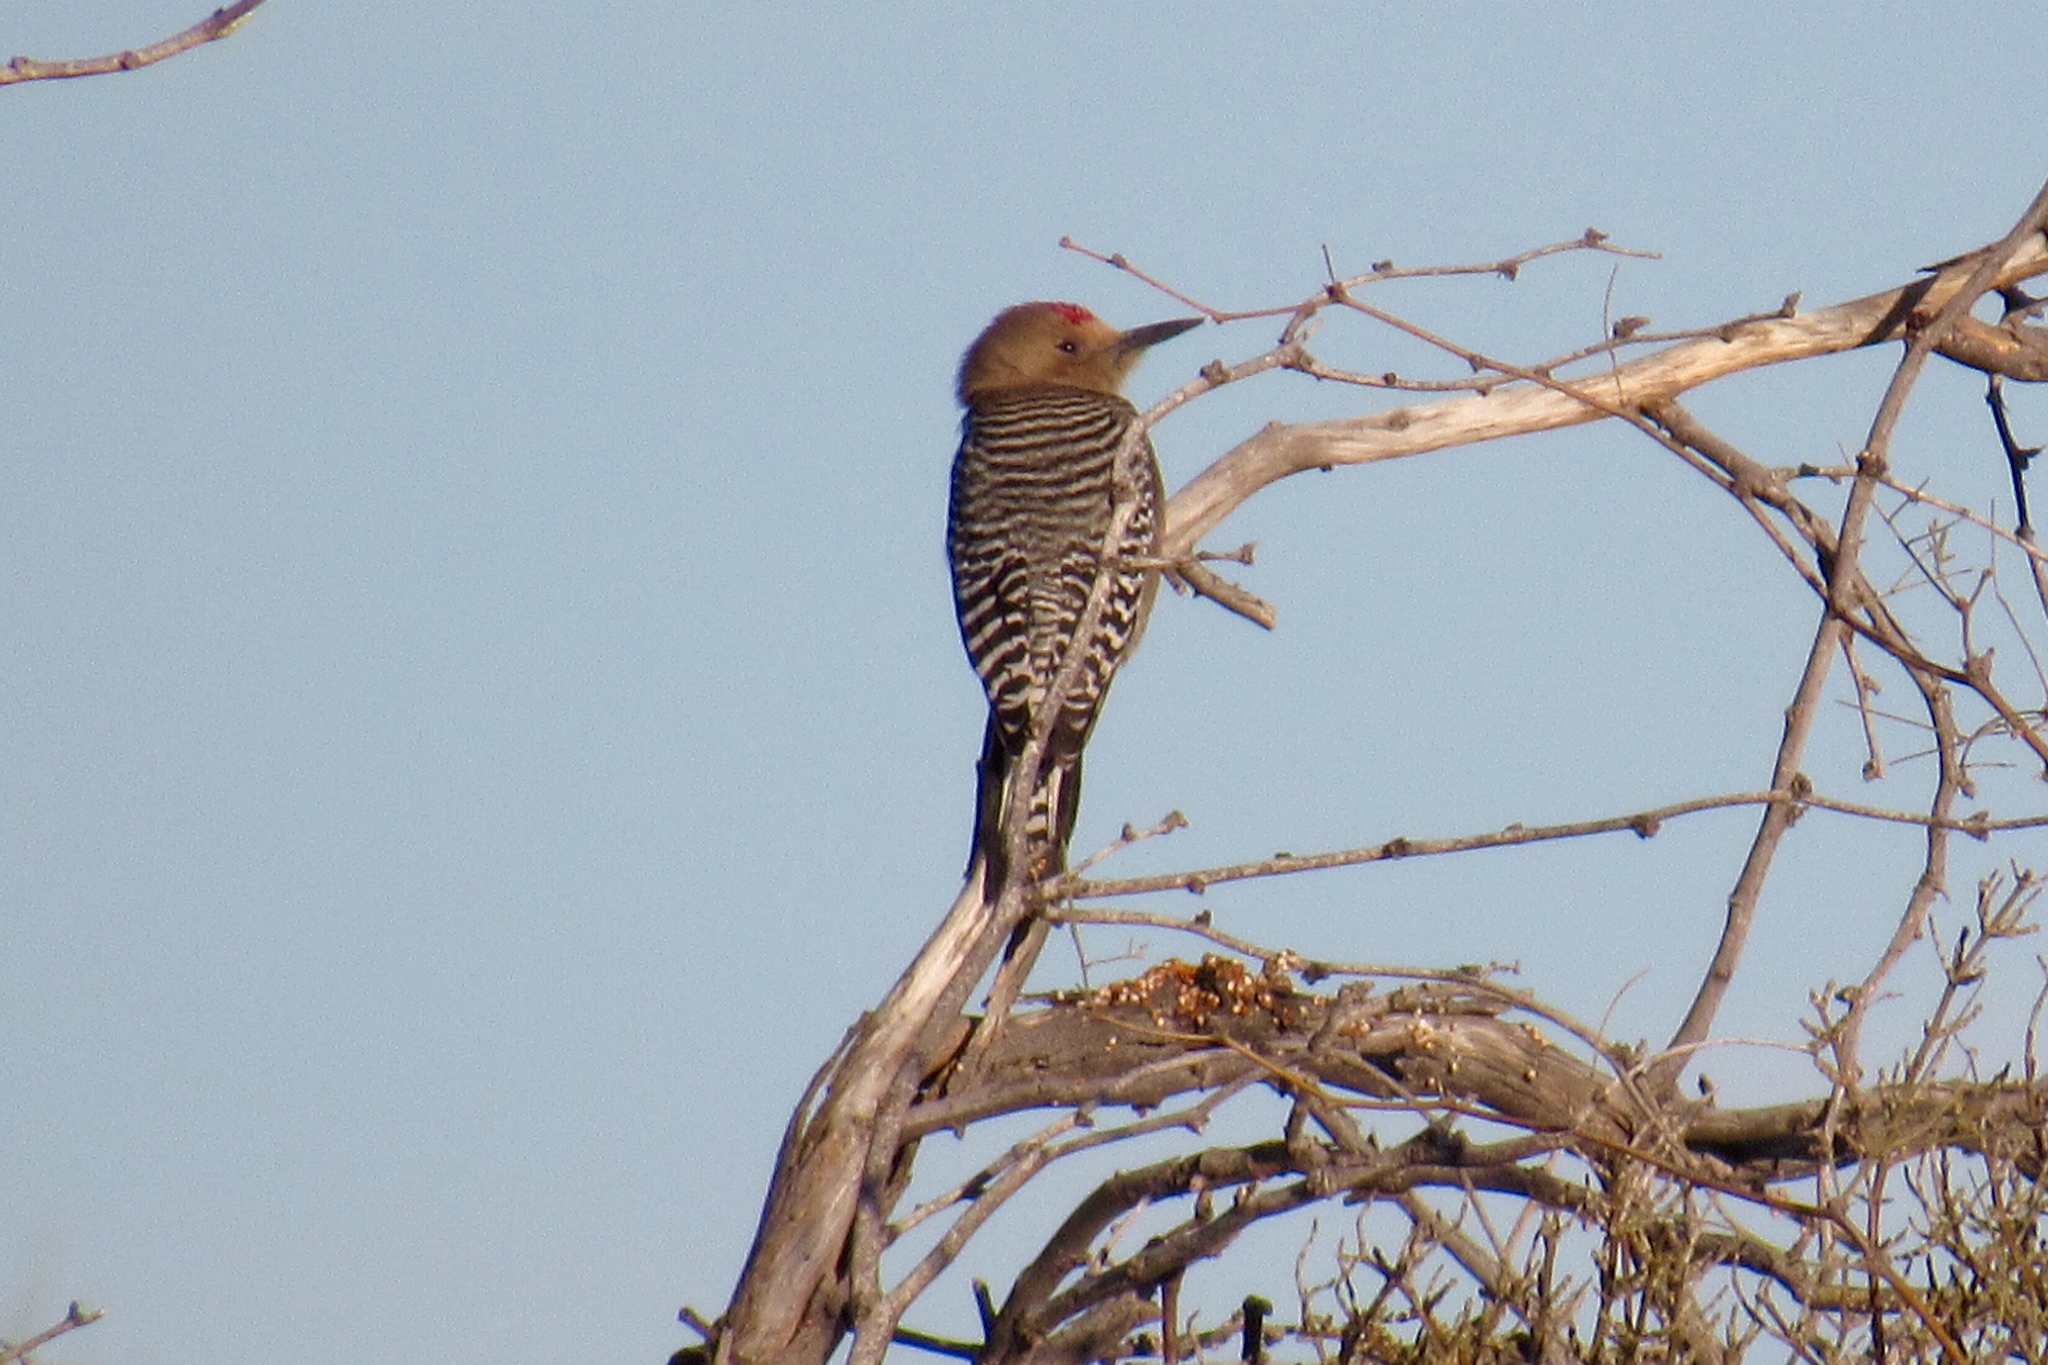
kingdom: Animalia
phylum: Chordata
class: Aves
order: Piciformes
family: Picidae
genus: Melanerpes
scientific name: Melanerpes uropygialis
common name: Gila woodpecker
